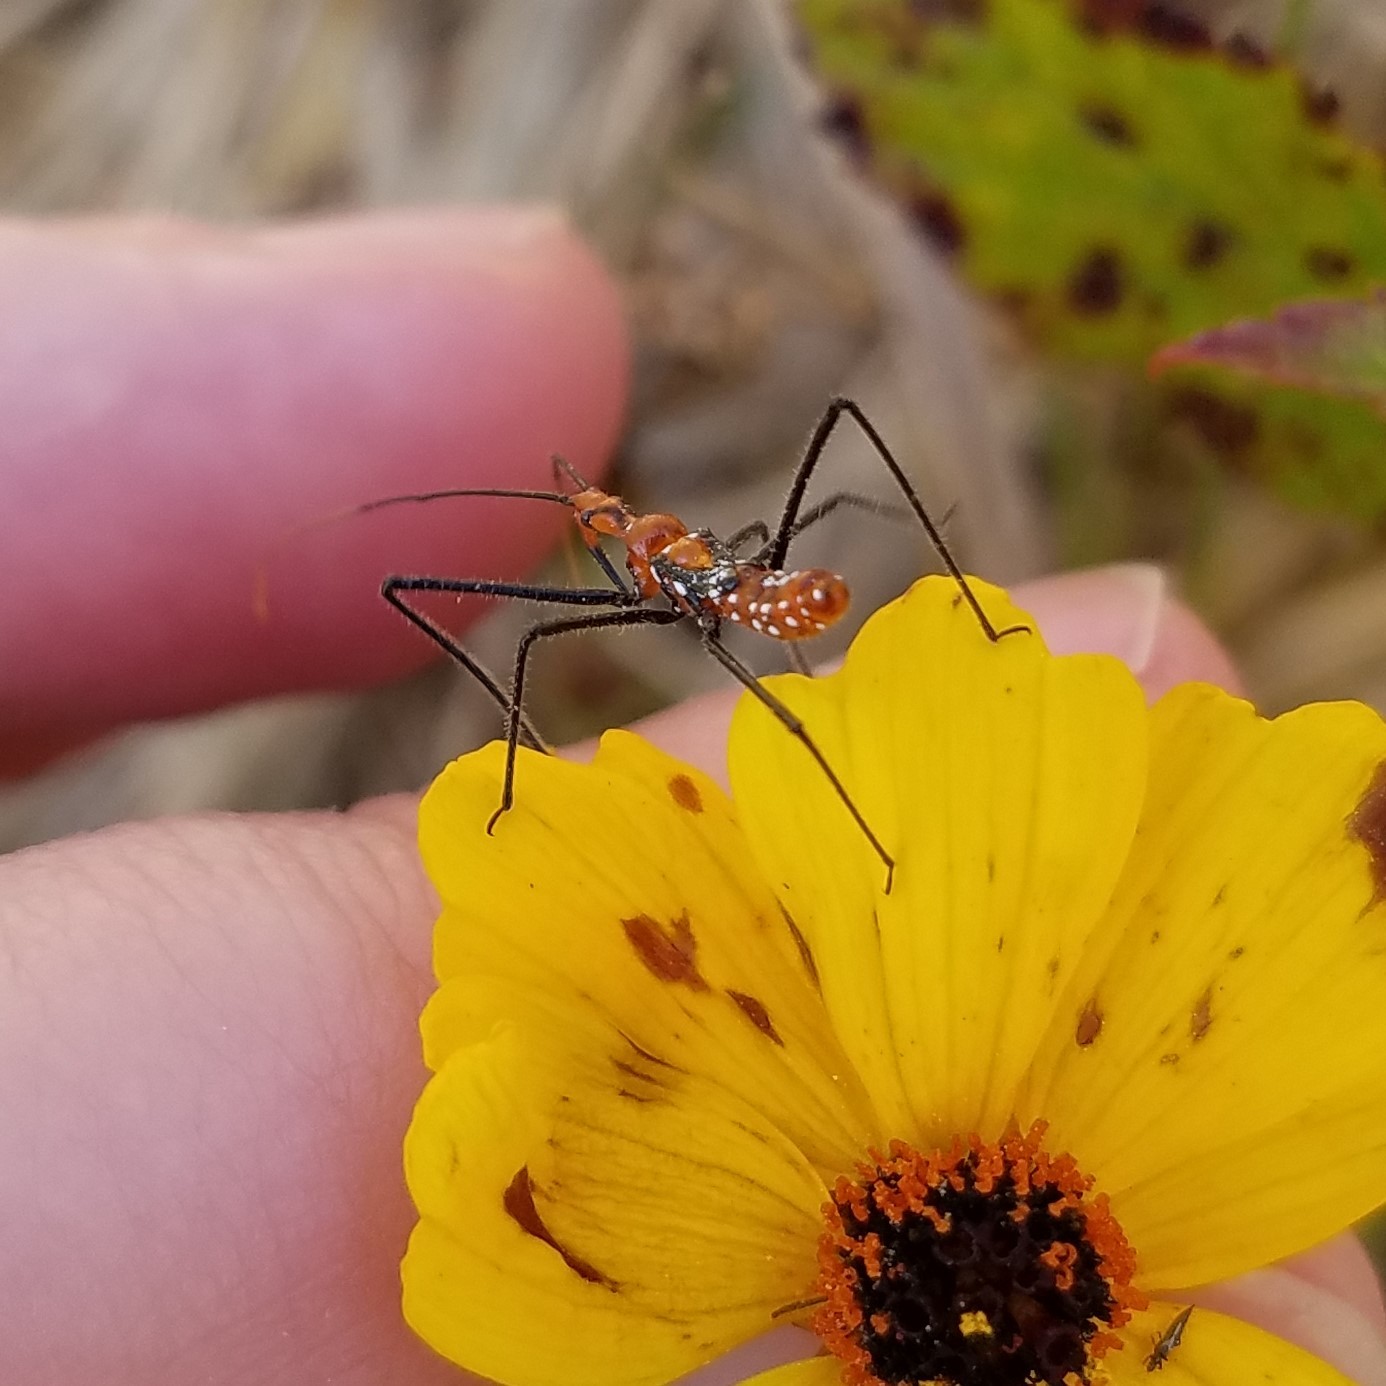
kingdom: Animalia
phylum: Arthropoda
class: Insecta
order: Hemiptera
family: Reduviidae
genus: Zelus
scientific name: Zelus longipes
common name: Milkweed assassin bug
